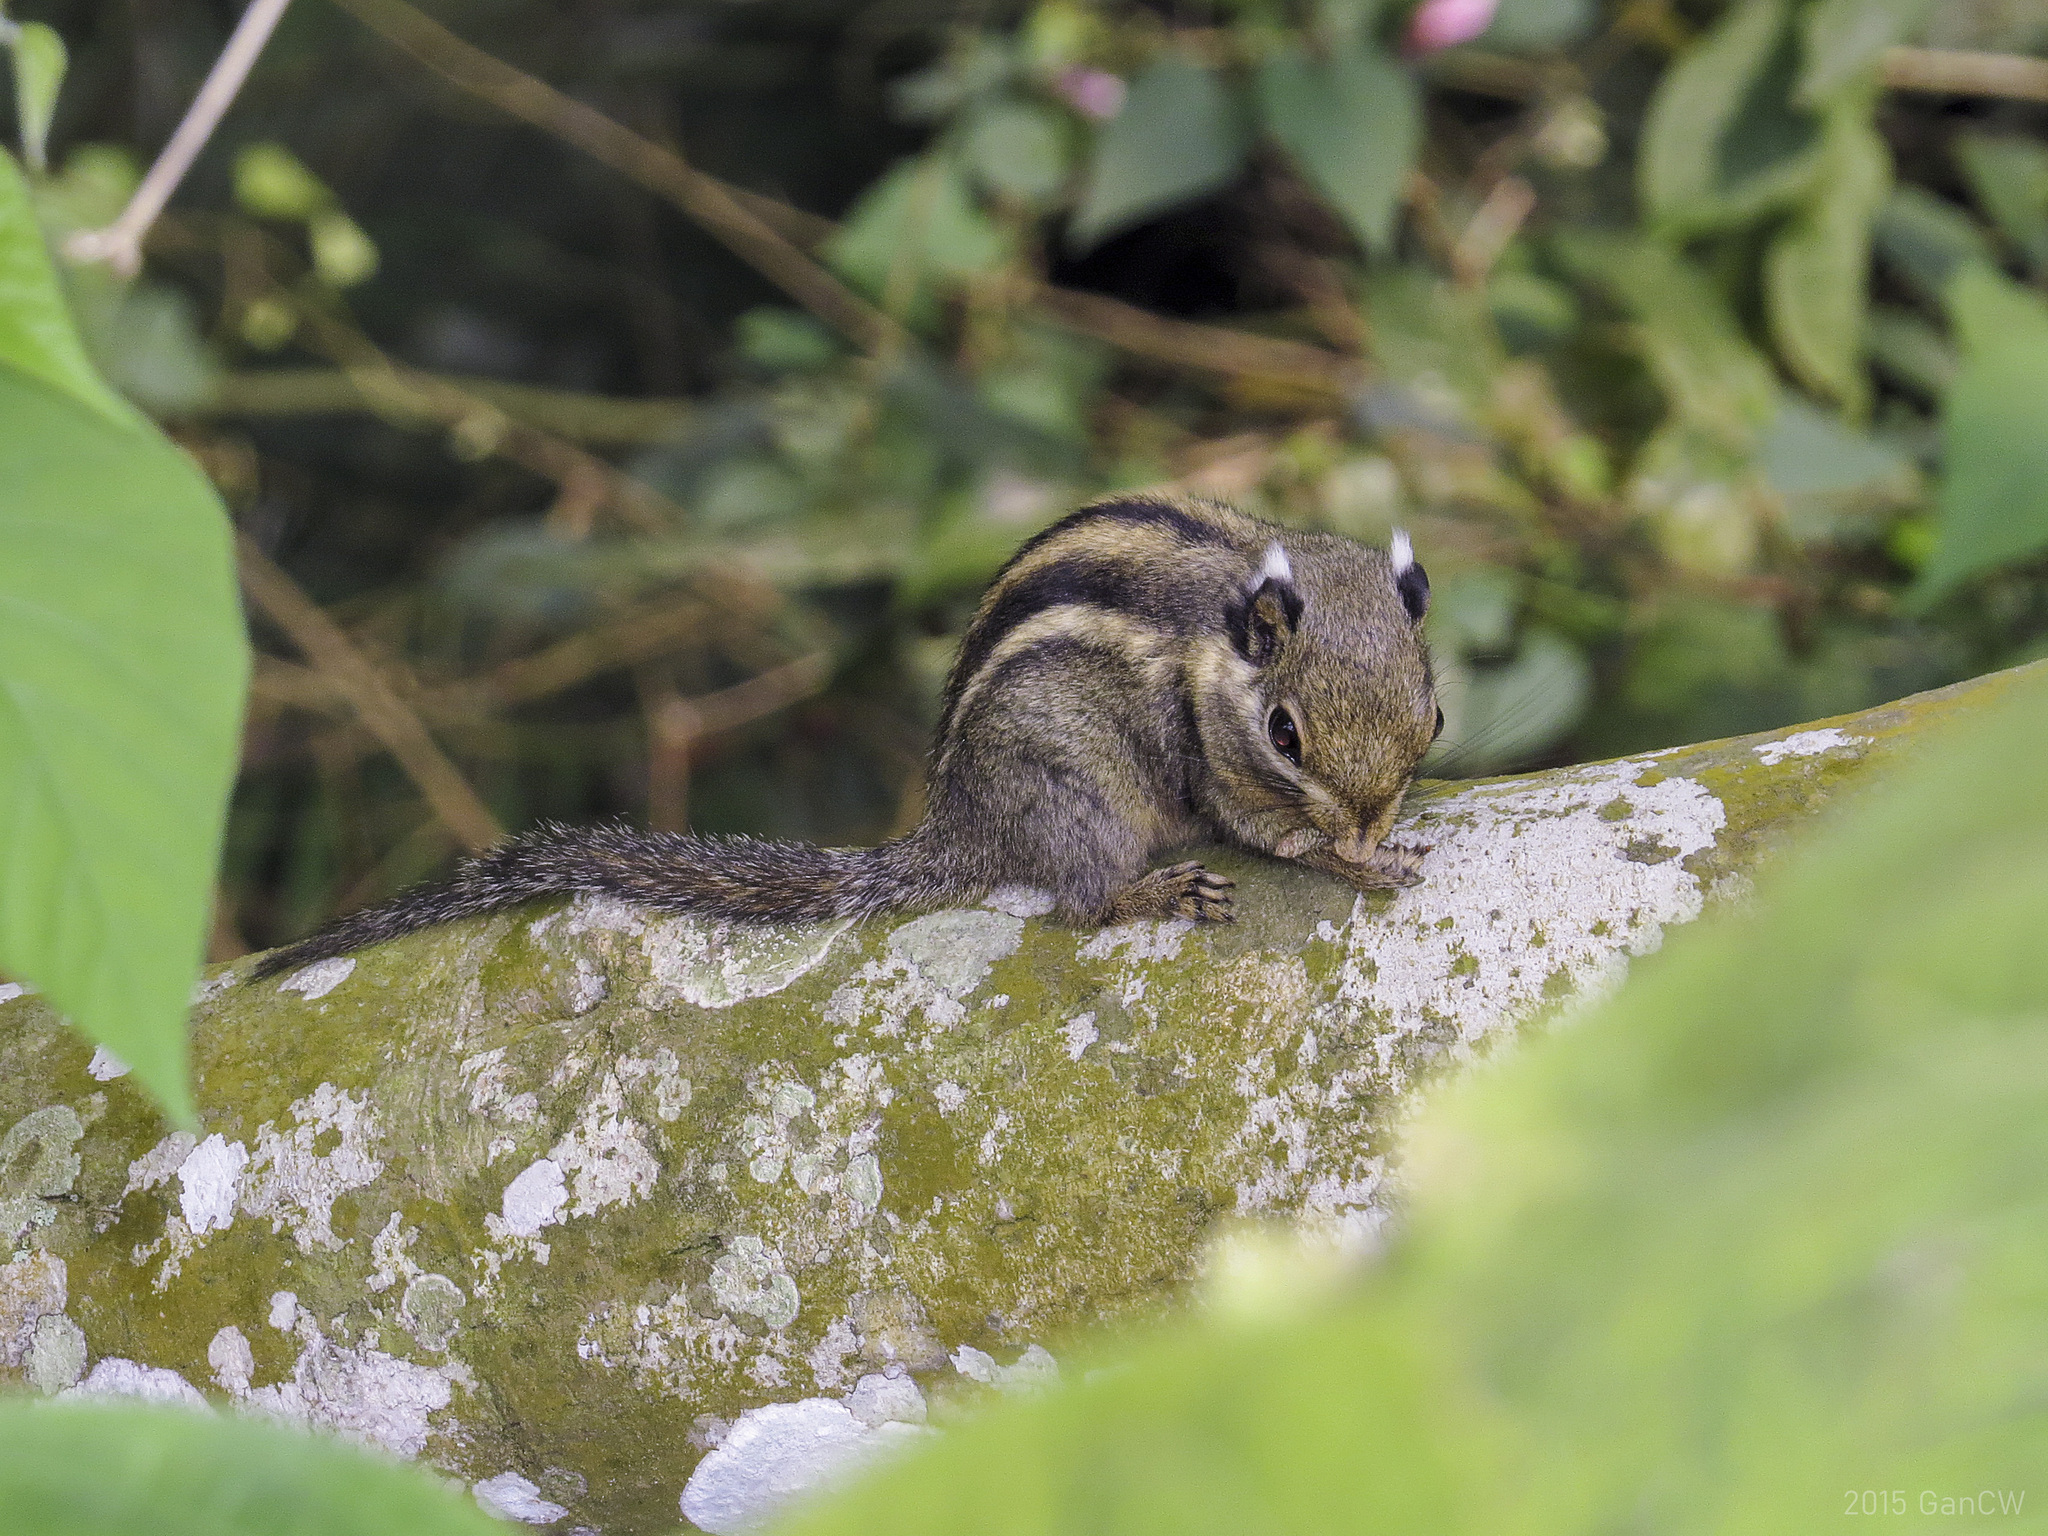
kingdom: Animalia
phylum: Chordata
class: Mammalia
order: Rodentia
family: Sciuridae
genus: Tamiops
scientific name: Tamiops mcclellandii
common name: Himalayan striped squirrel
